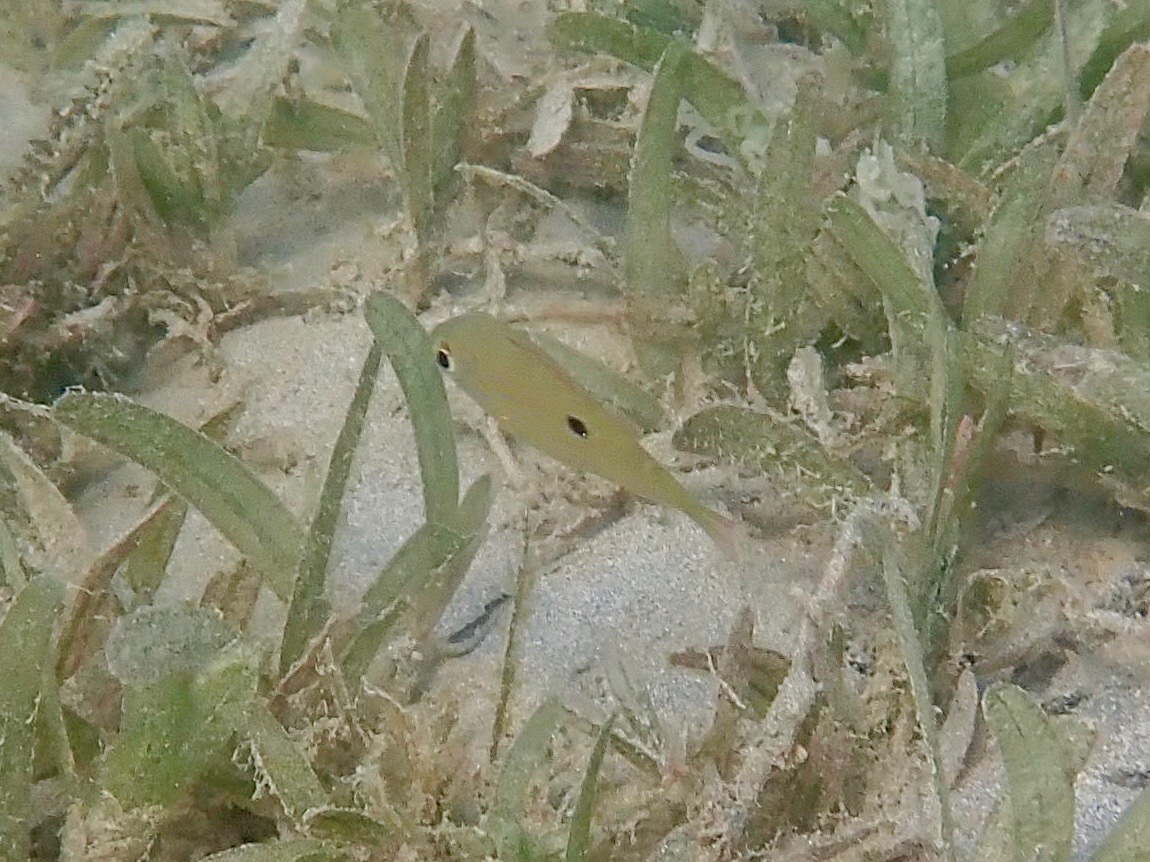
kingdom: Animalia
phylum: Chordata
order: Perciformes
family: Lutjanidae
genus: Lutjanus
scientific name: Lutjanus synagris
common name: Lane snapper
